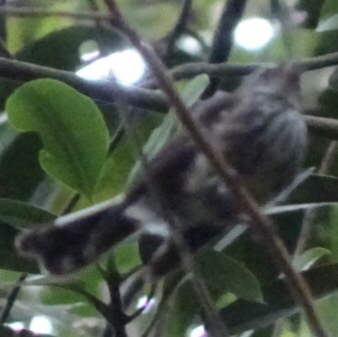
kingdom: Animalia
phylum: Chordata
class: Aves
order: Passeriformes
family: Rhipiduridae
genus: Rhipidura
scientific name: Rhipidura layardi
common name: Fiji streaked fantail
